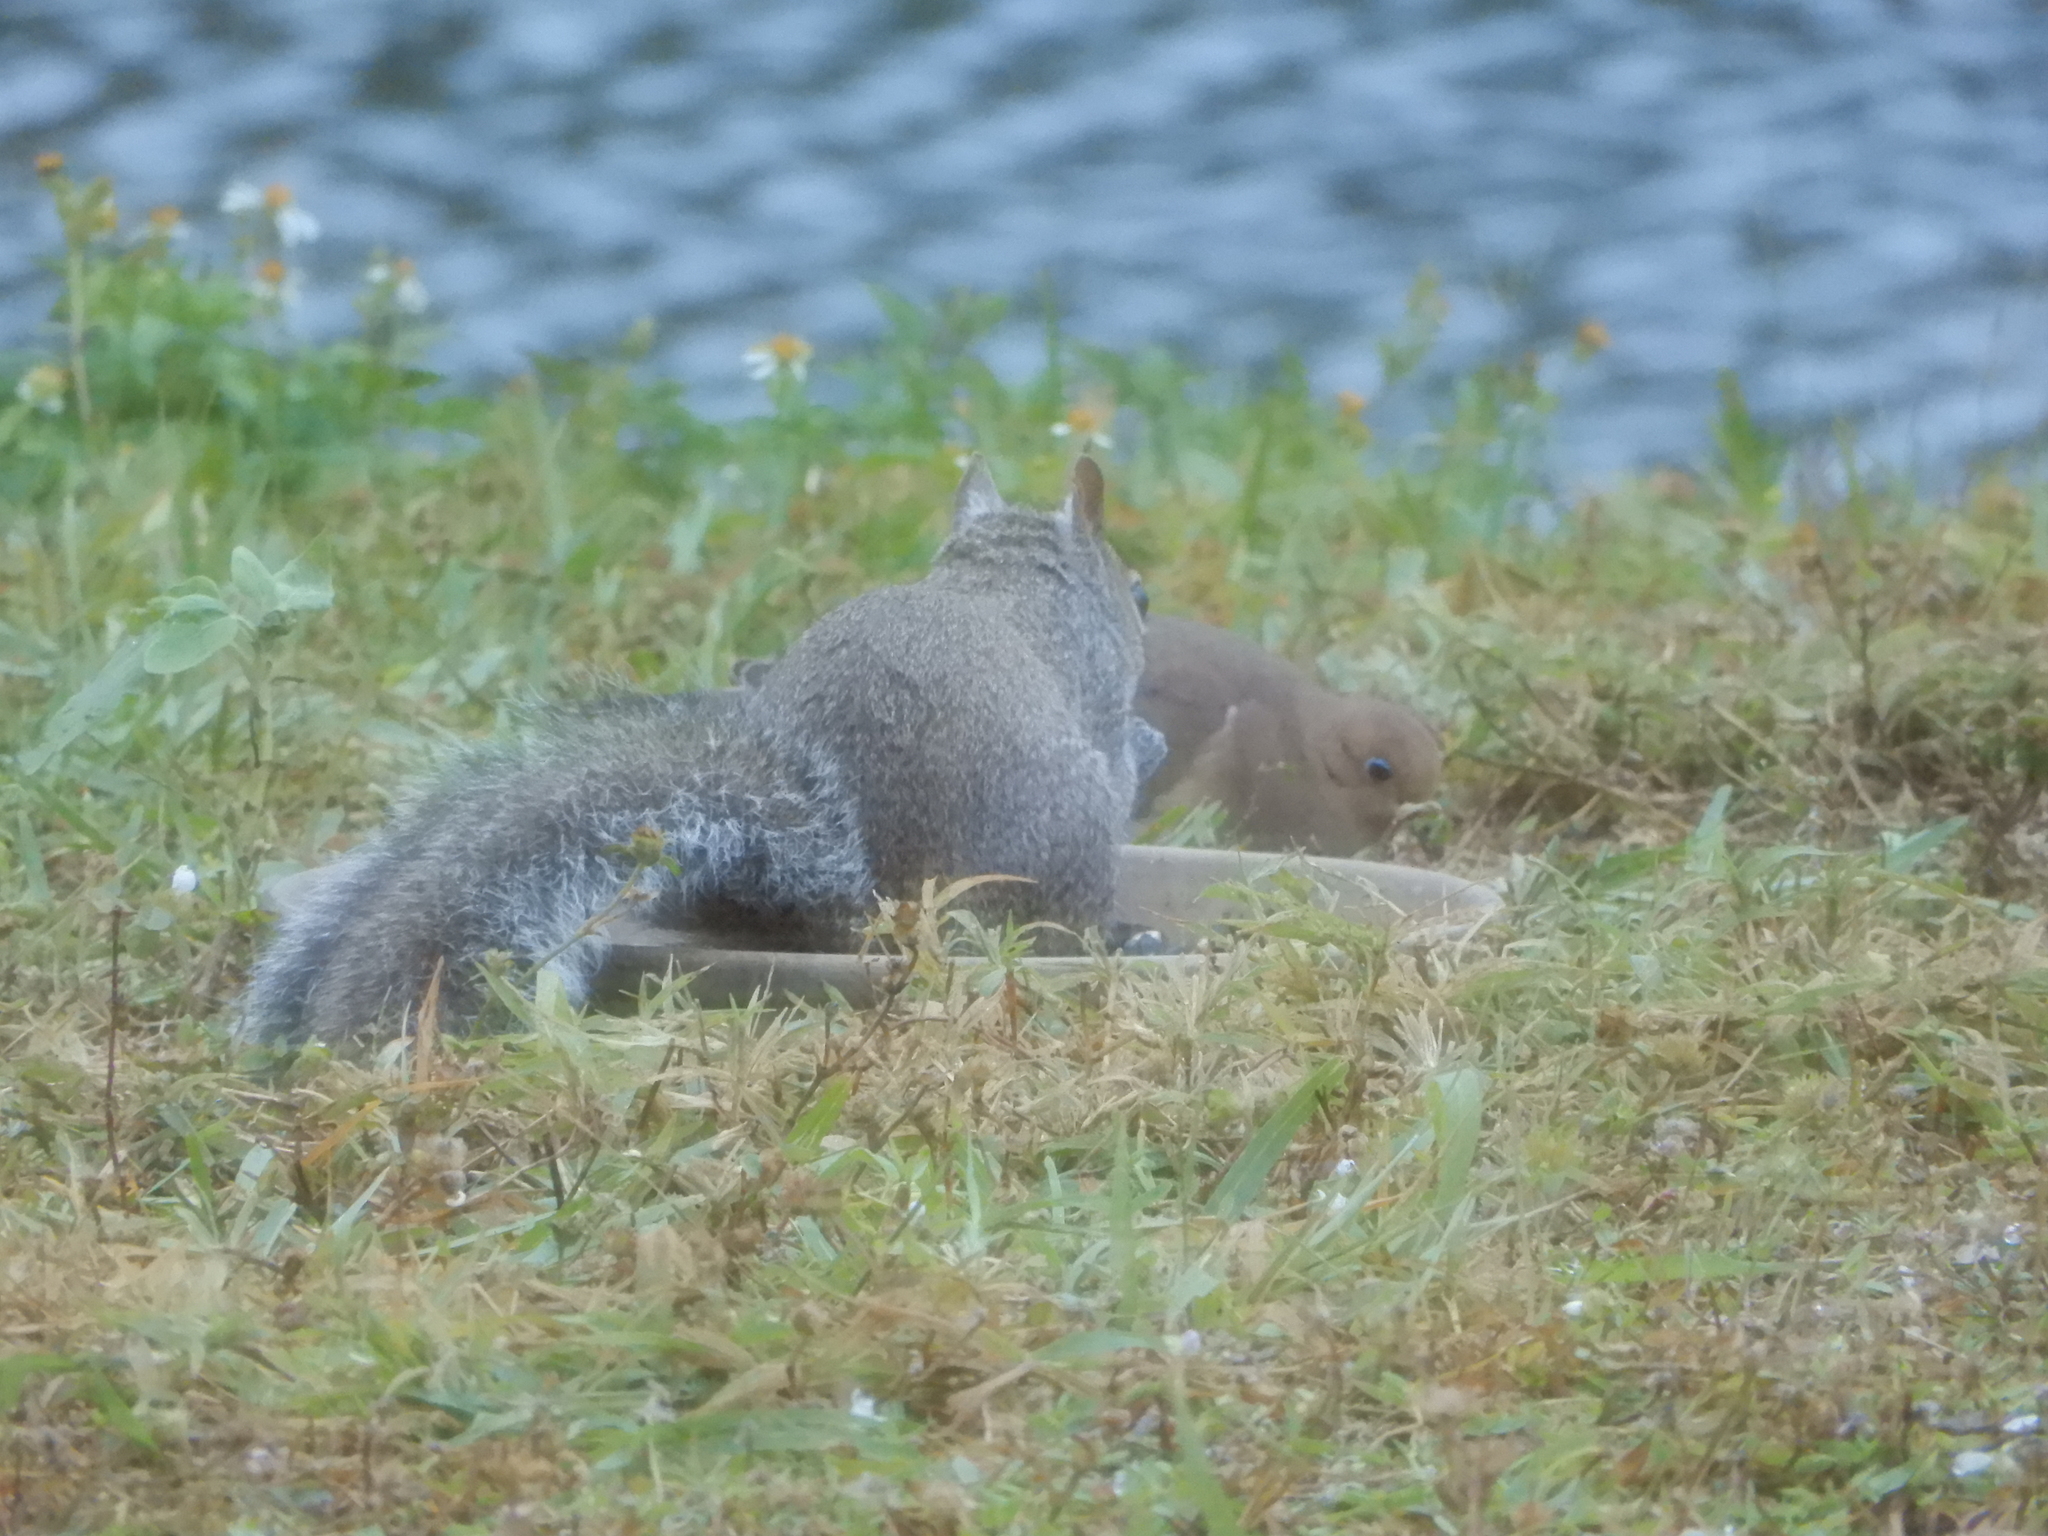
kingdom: Animalia
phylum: Chordata
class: Mammalia
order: Rodentia
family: Sciuridae
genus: Sciurus
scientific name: Sciurus carolinensis
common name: Eastern gray squirrel
